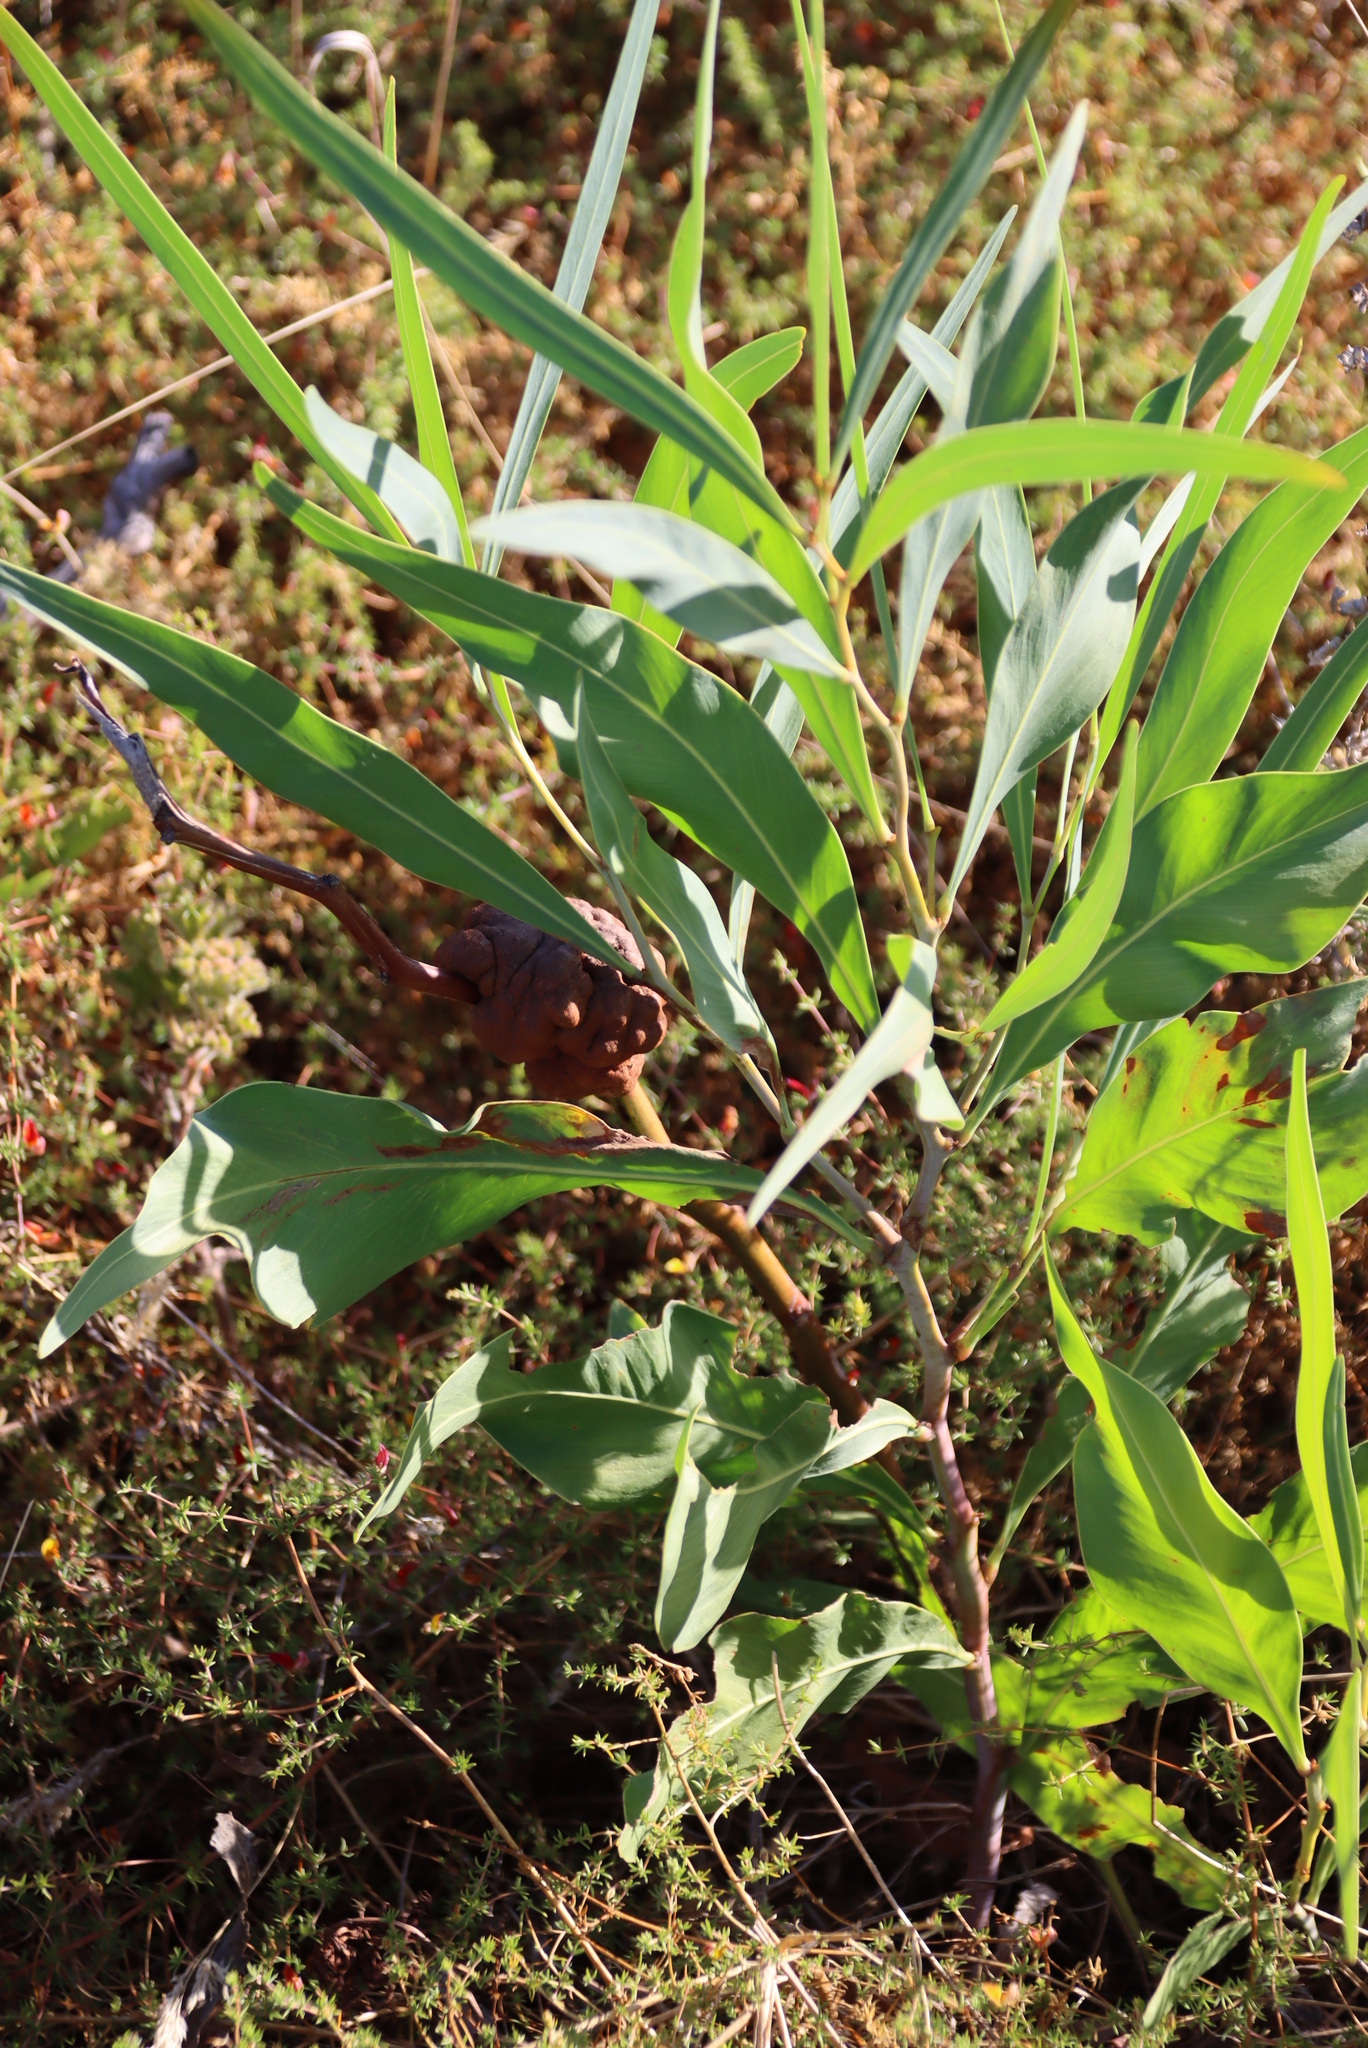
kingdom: Plantae
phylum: Tracheophyta
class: Magnoliopsida
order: Fabales
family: Fabaceae
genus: Acacia
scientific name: Acacia saligna
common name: Orange wattle
